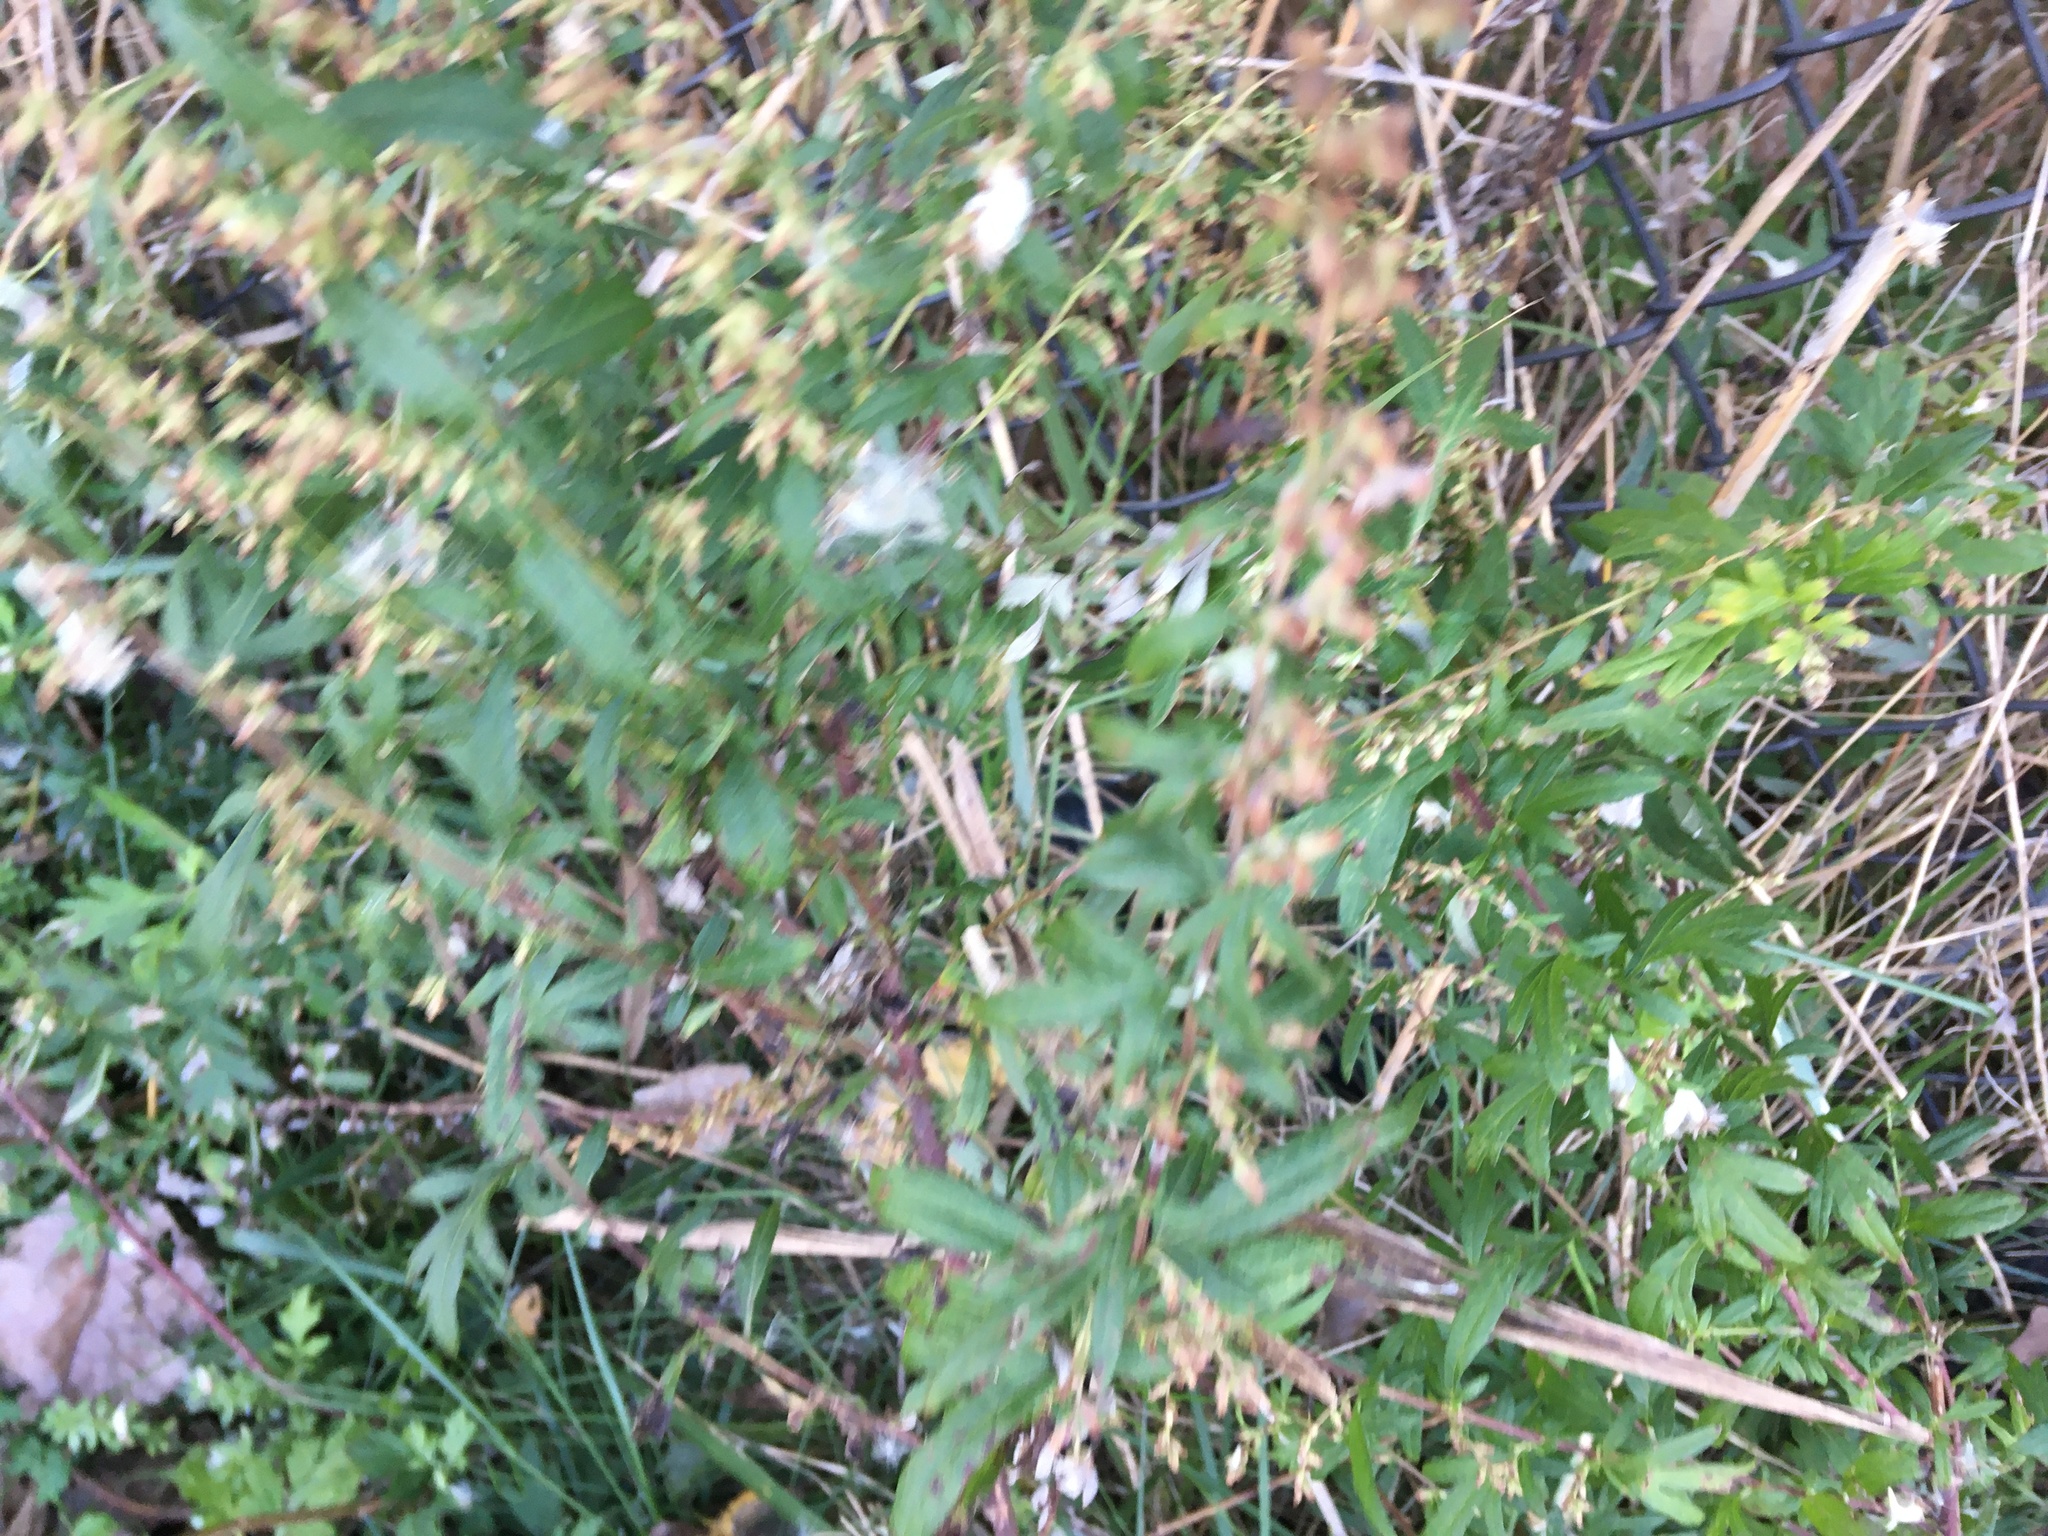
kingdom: Plantae
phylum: Tracheophyta
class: Magnoliopsida
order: Asterales
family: Asteraceae
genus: Artemisia
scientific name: Artemisia vulgaris
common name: Mugwort
